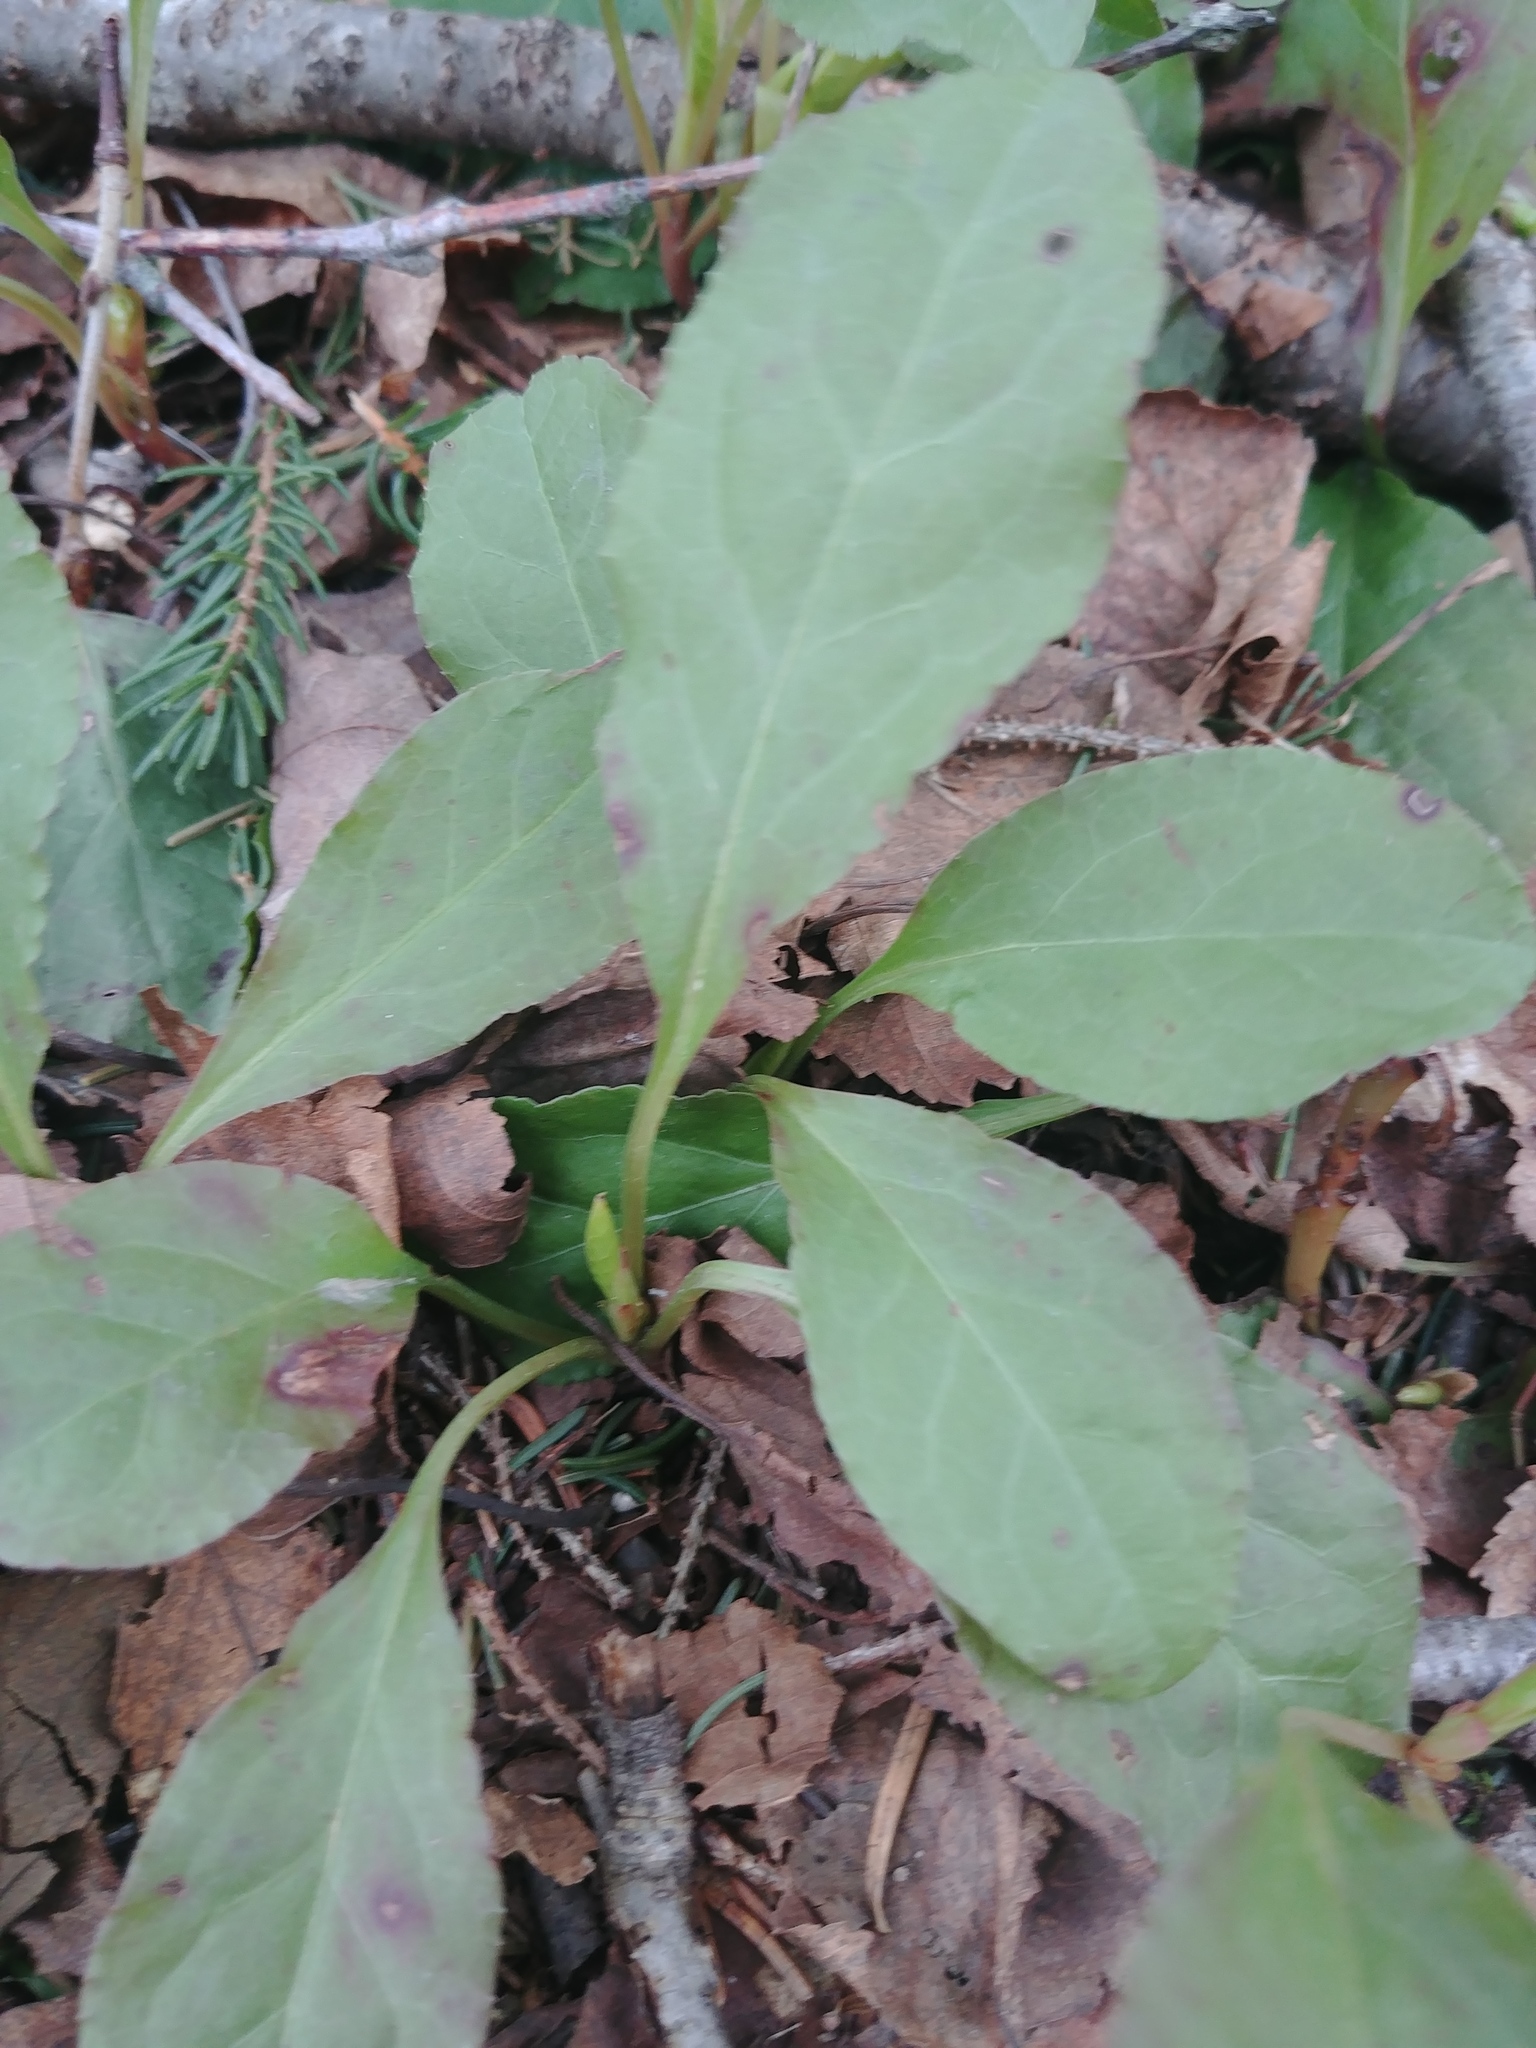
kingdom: Plantae
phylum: Tracheophyta
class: Magnoliopsida
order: Ericales
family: Ericaceae
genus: Pyrola
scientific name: Pyrola elliptica
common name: Shinleaf
